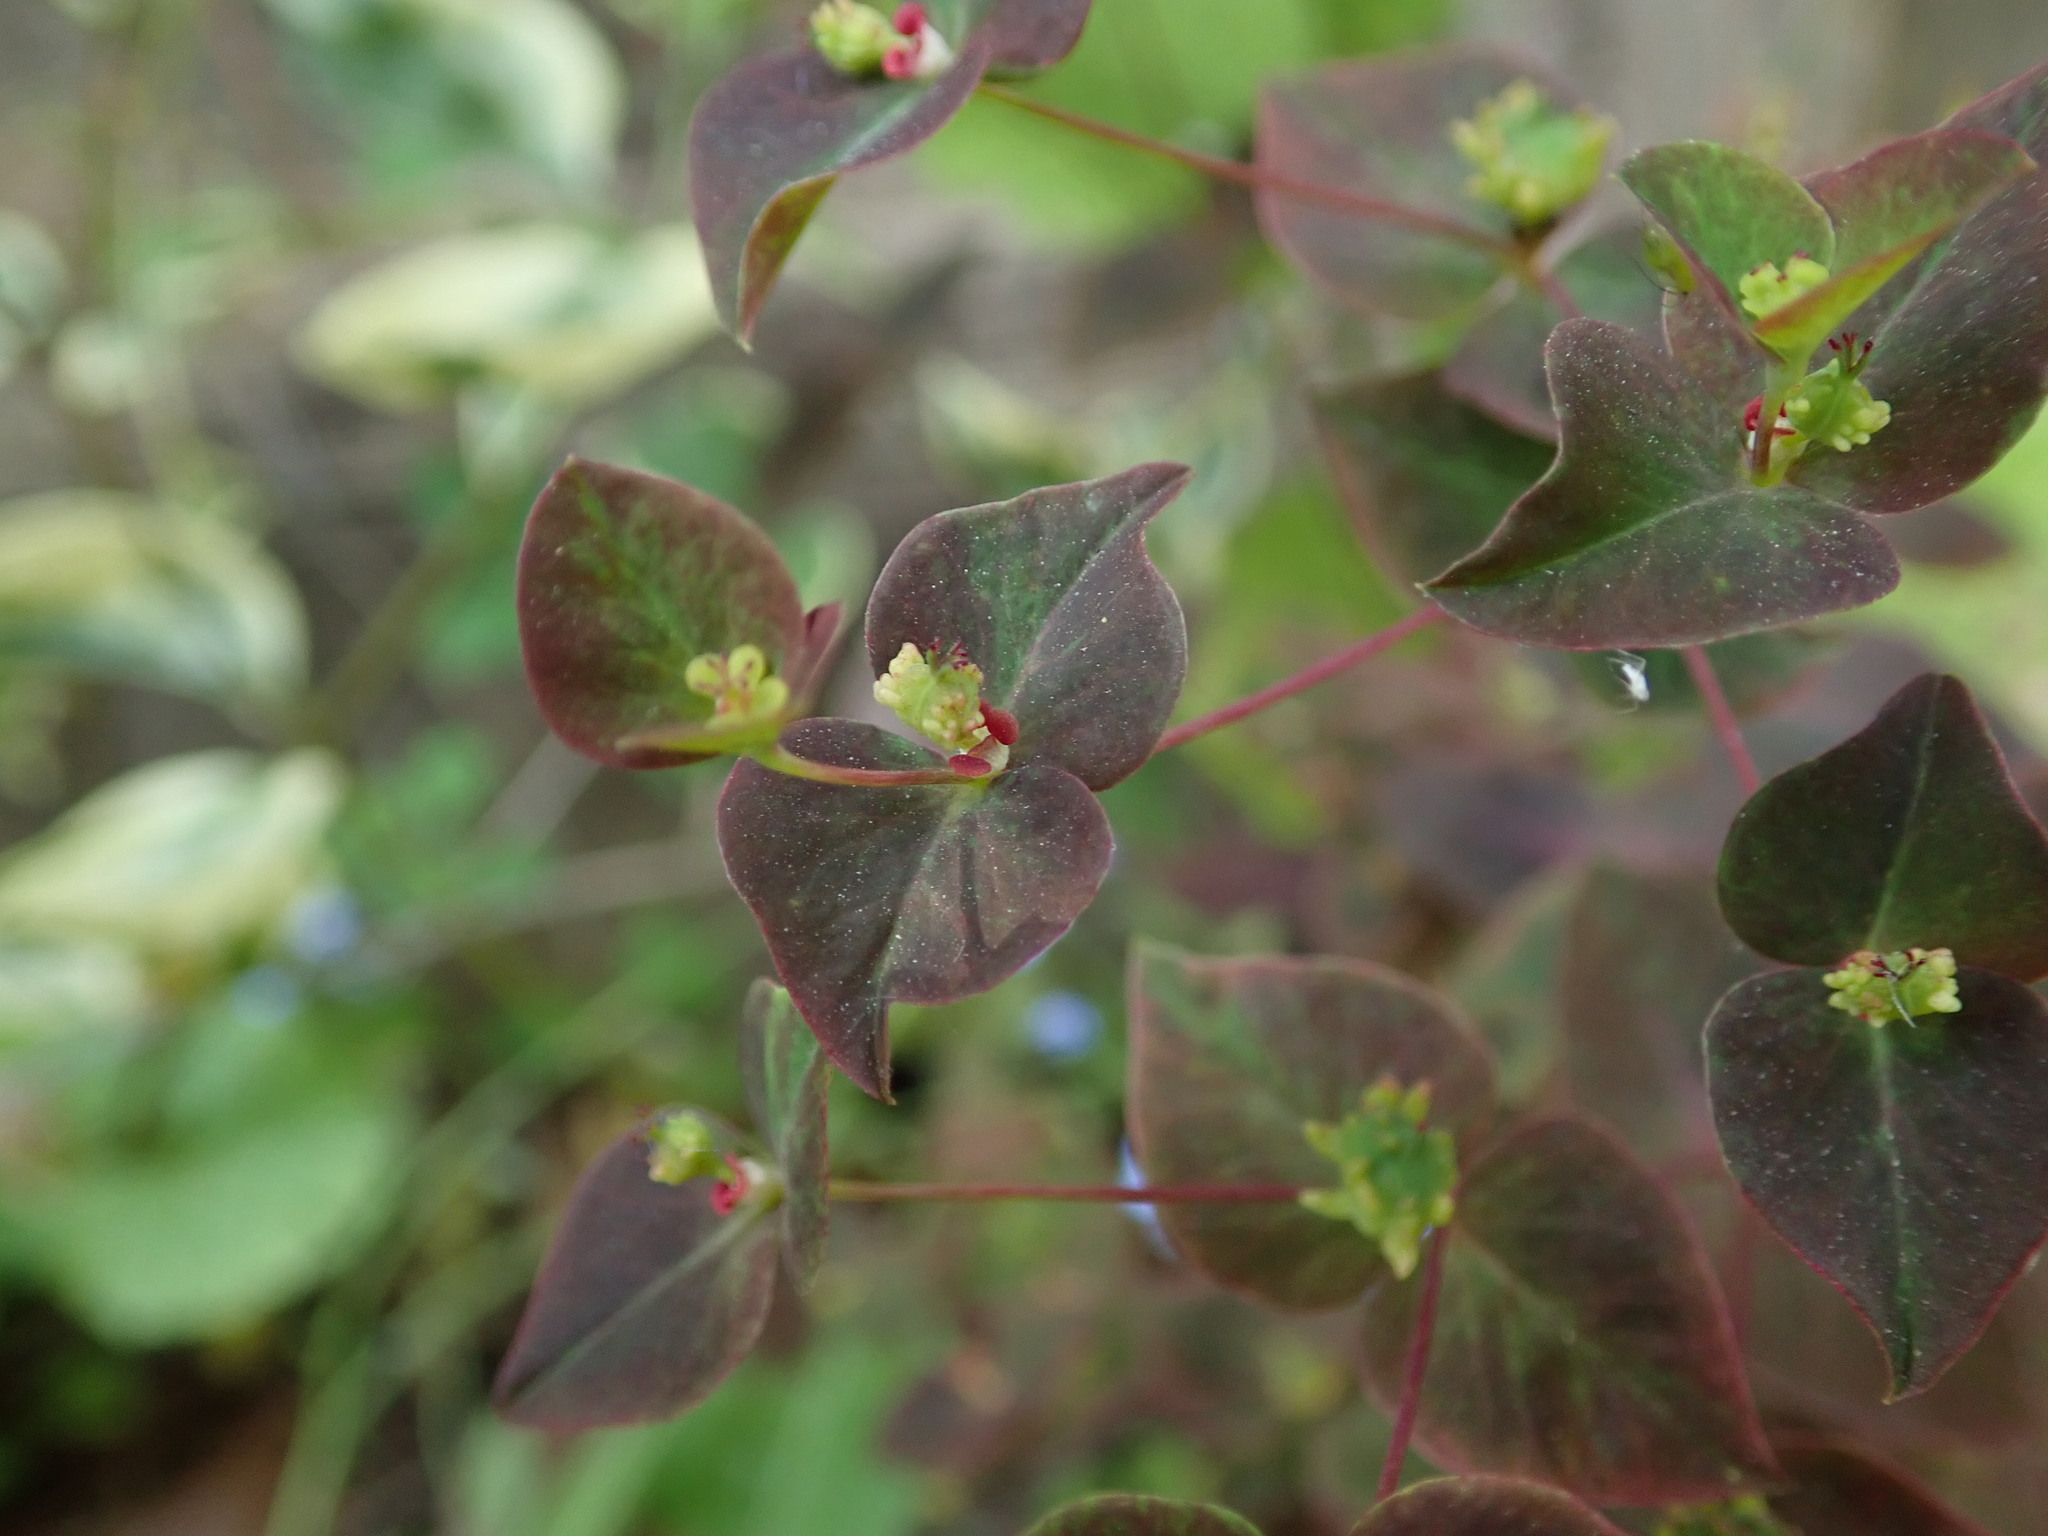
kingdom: Plantae
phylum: Tracheophyta
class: Magnoliopsida
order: Malpighiales
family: Euphorbiaceae
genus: Euphorbia
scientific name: Euphorbia dulcis
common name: Sweet spurge
